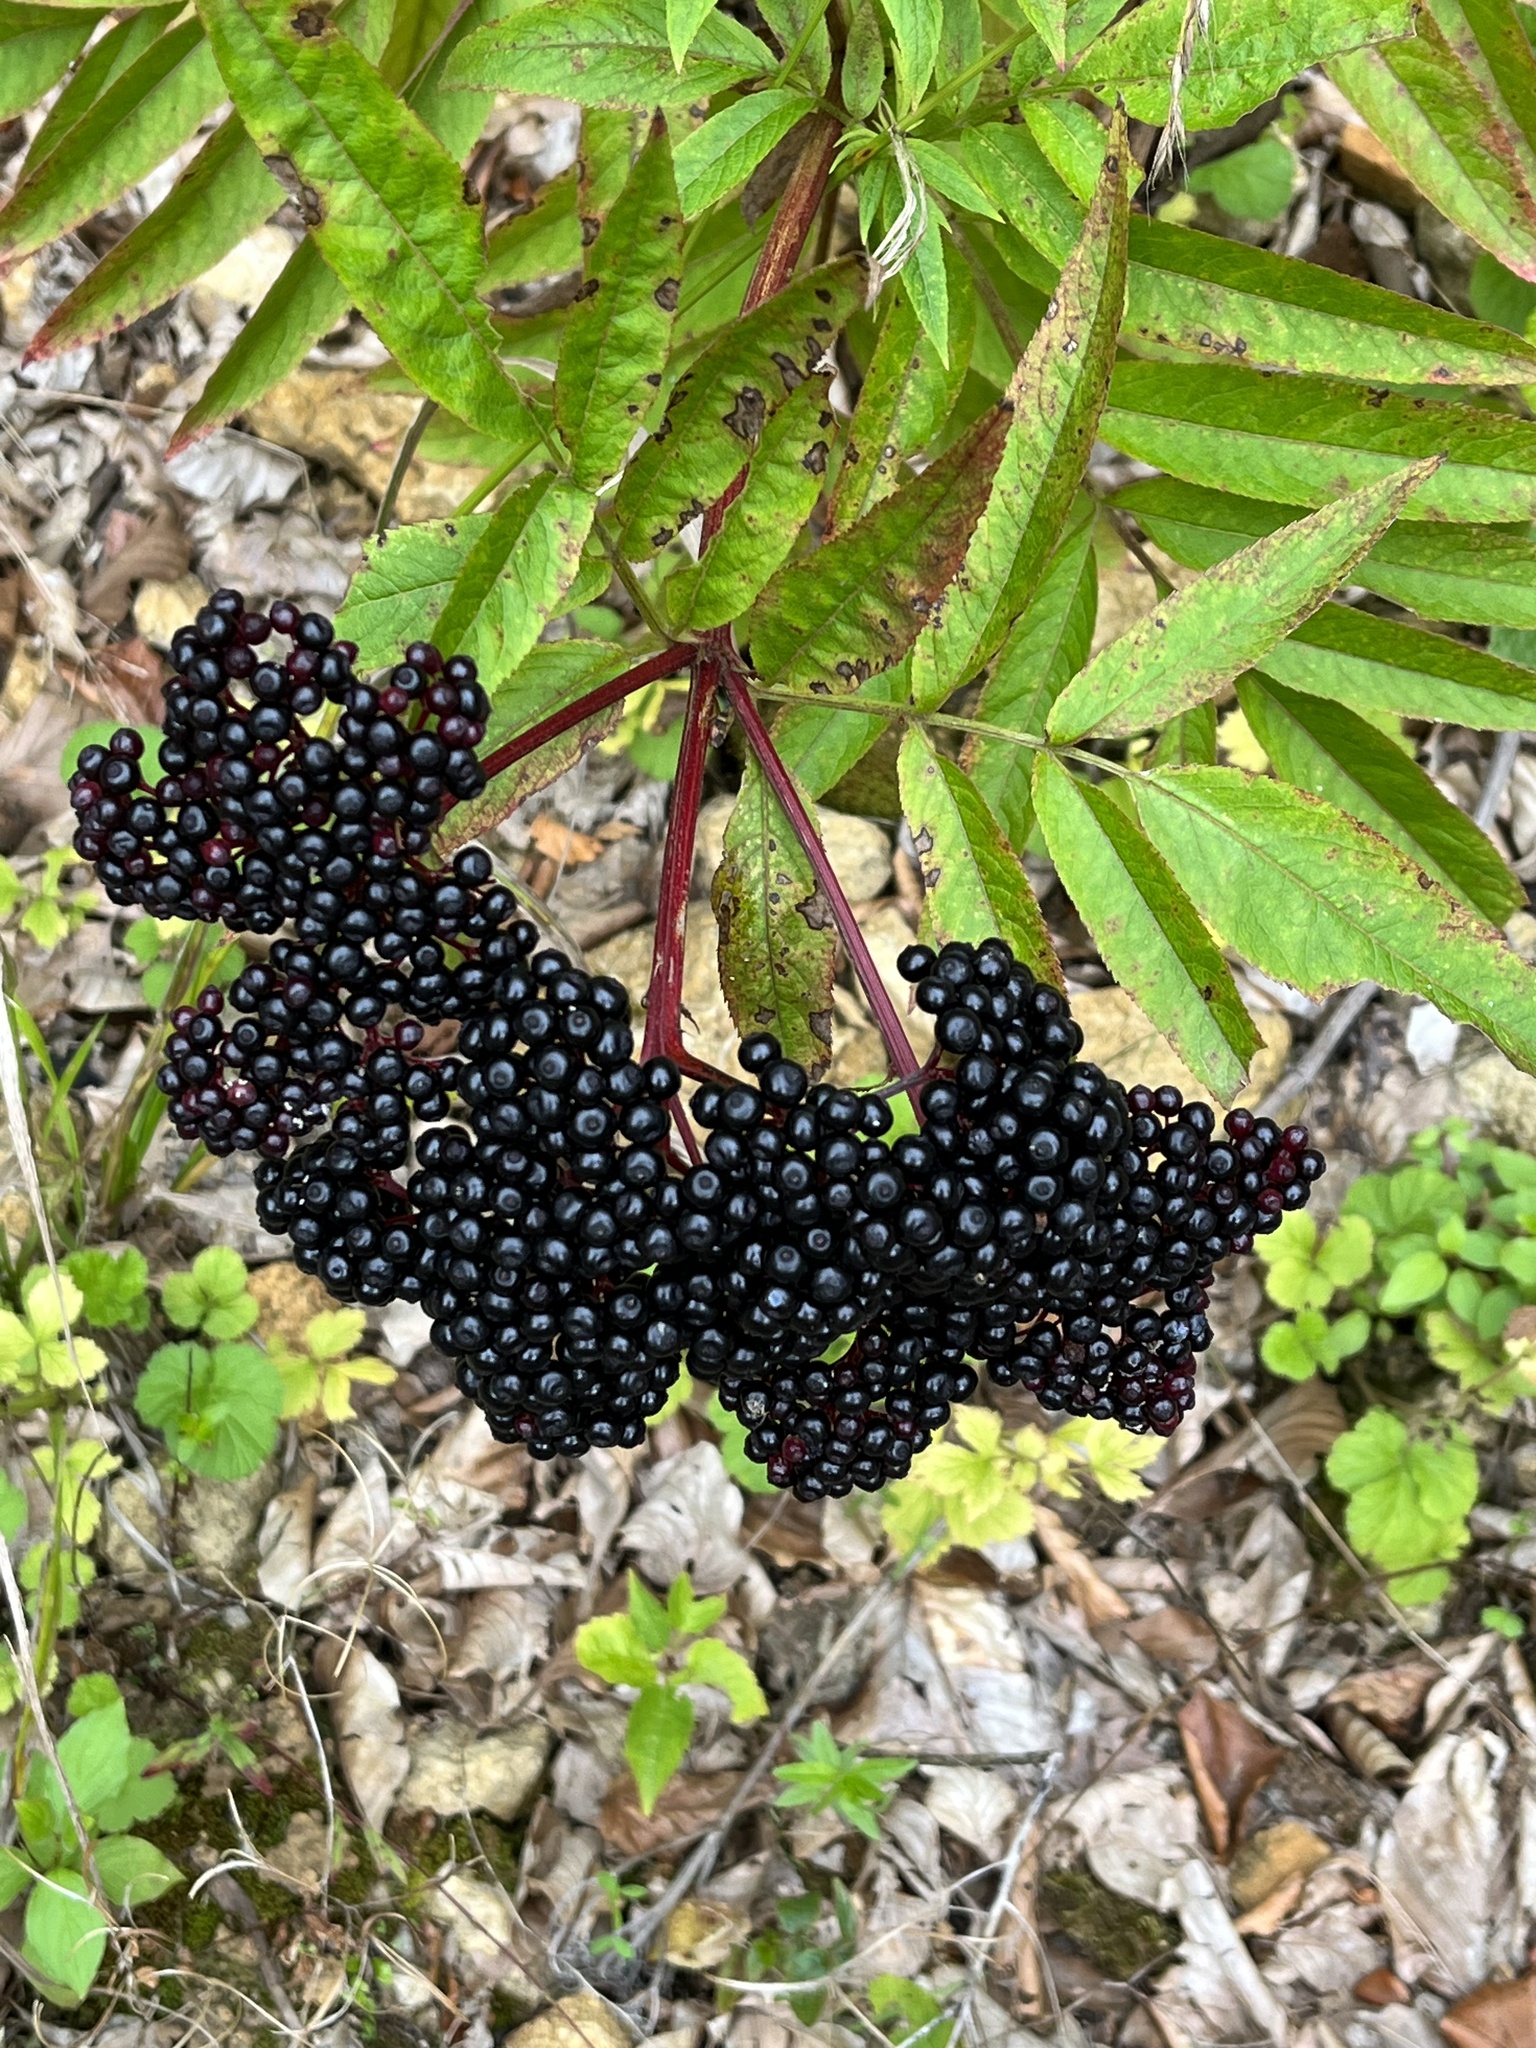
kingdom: Plantae
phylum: Tracheophyta
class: Magnoliopsida
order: Dipsacales
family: Viburnaceae
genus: Sambucus
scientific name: Sambucus ebulus
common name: Dwarf elder
